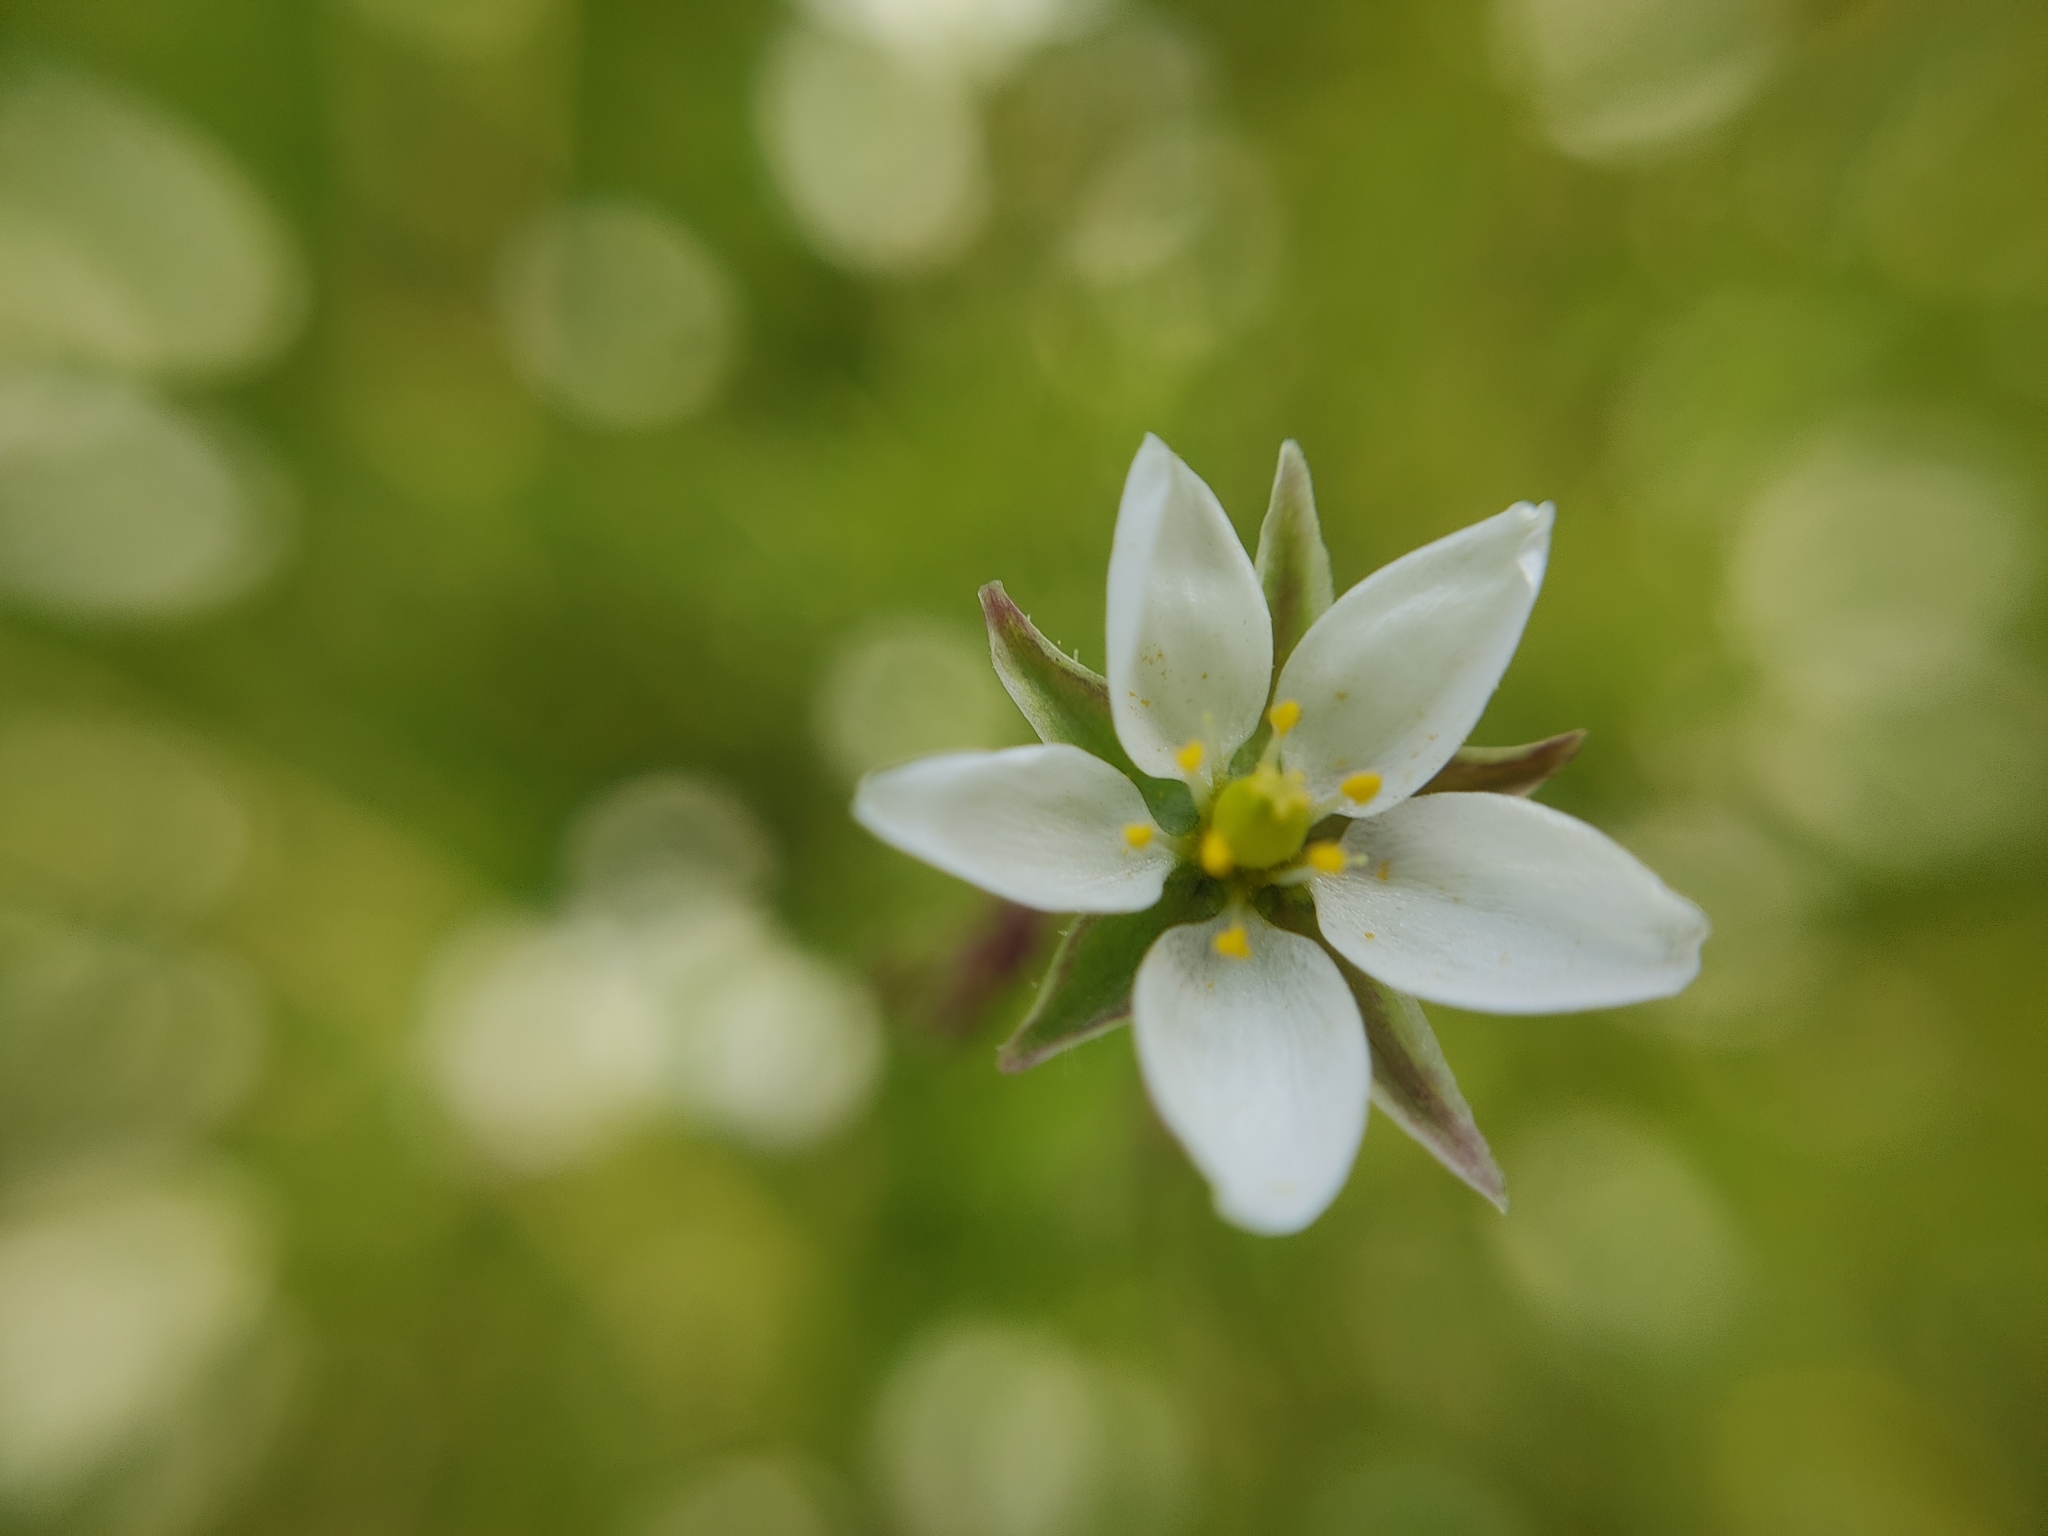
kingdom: Plantae
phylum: Tracheophyta
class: Magnoliopsida
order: Caryophyllales
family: Caryophyllaceae
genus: Spergula
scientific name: Spergula arvensis
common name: Corn spurrey
